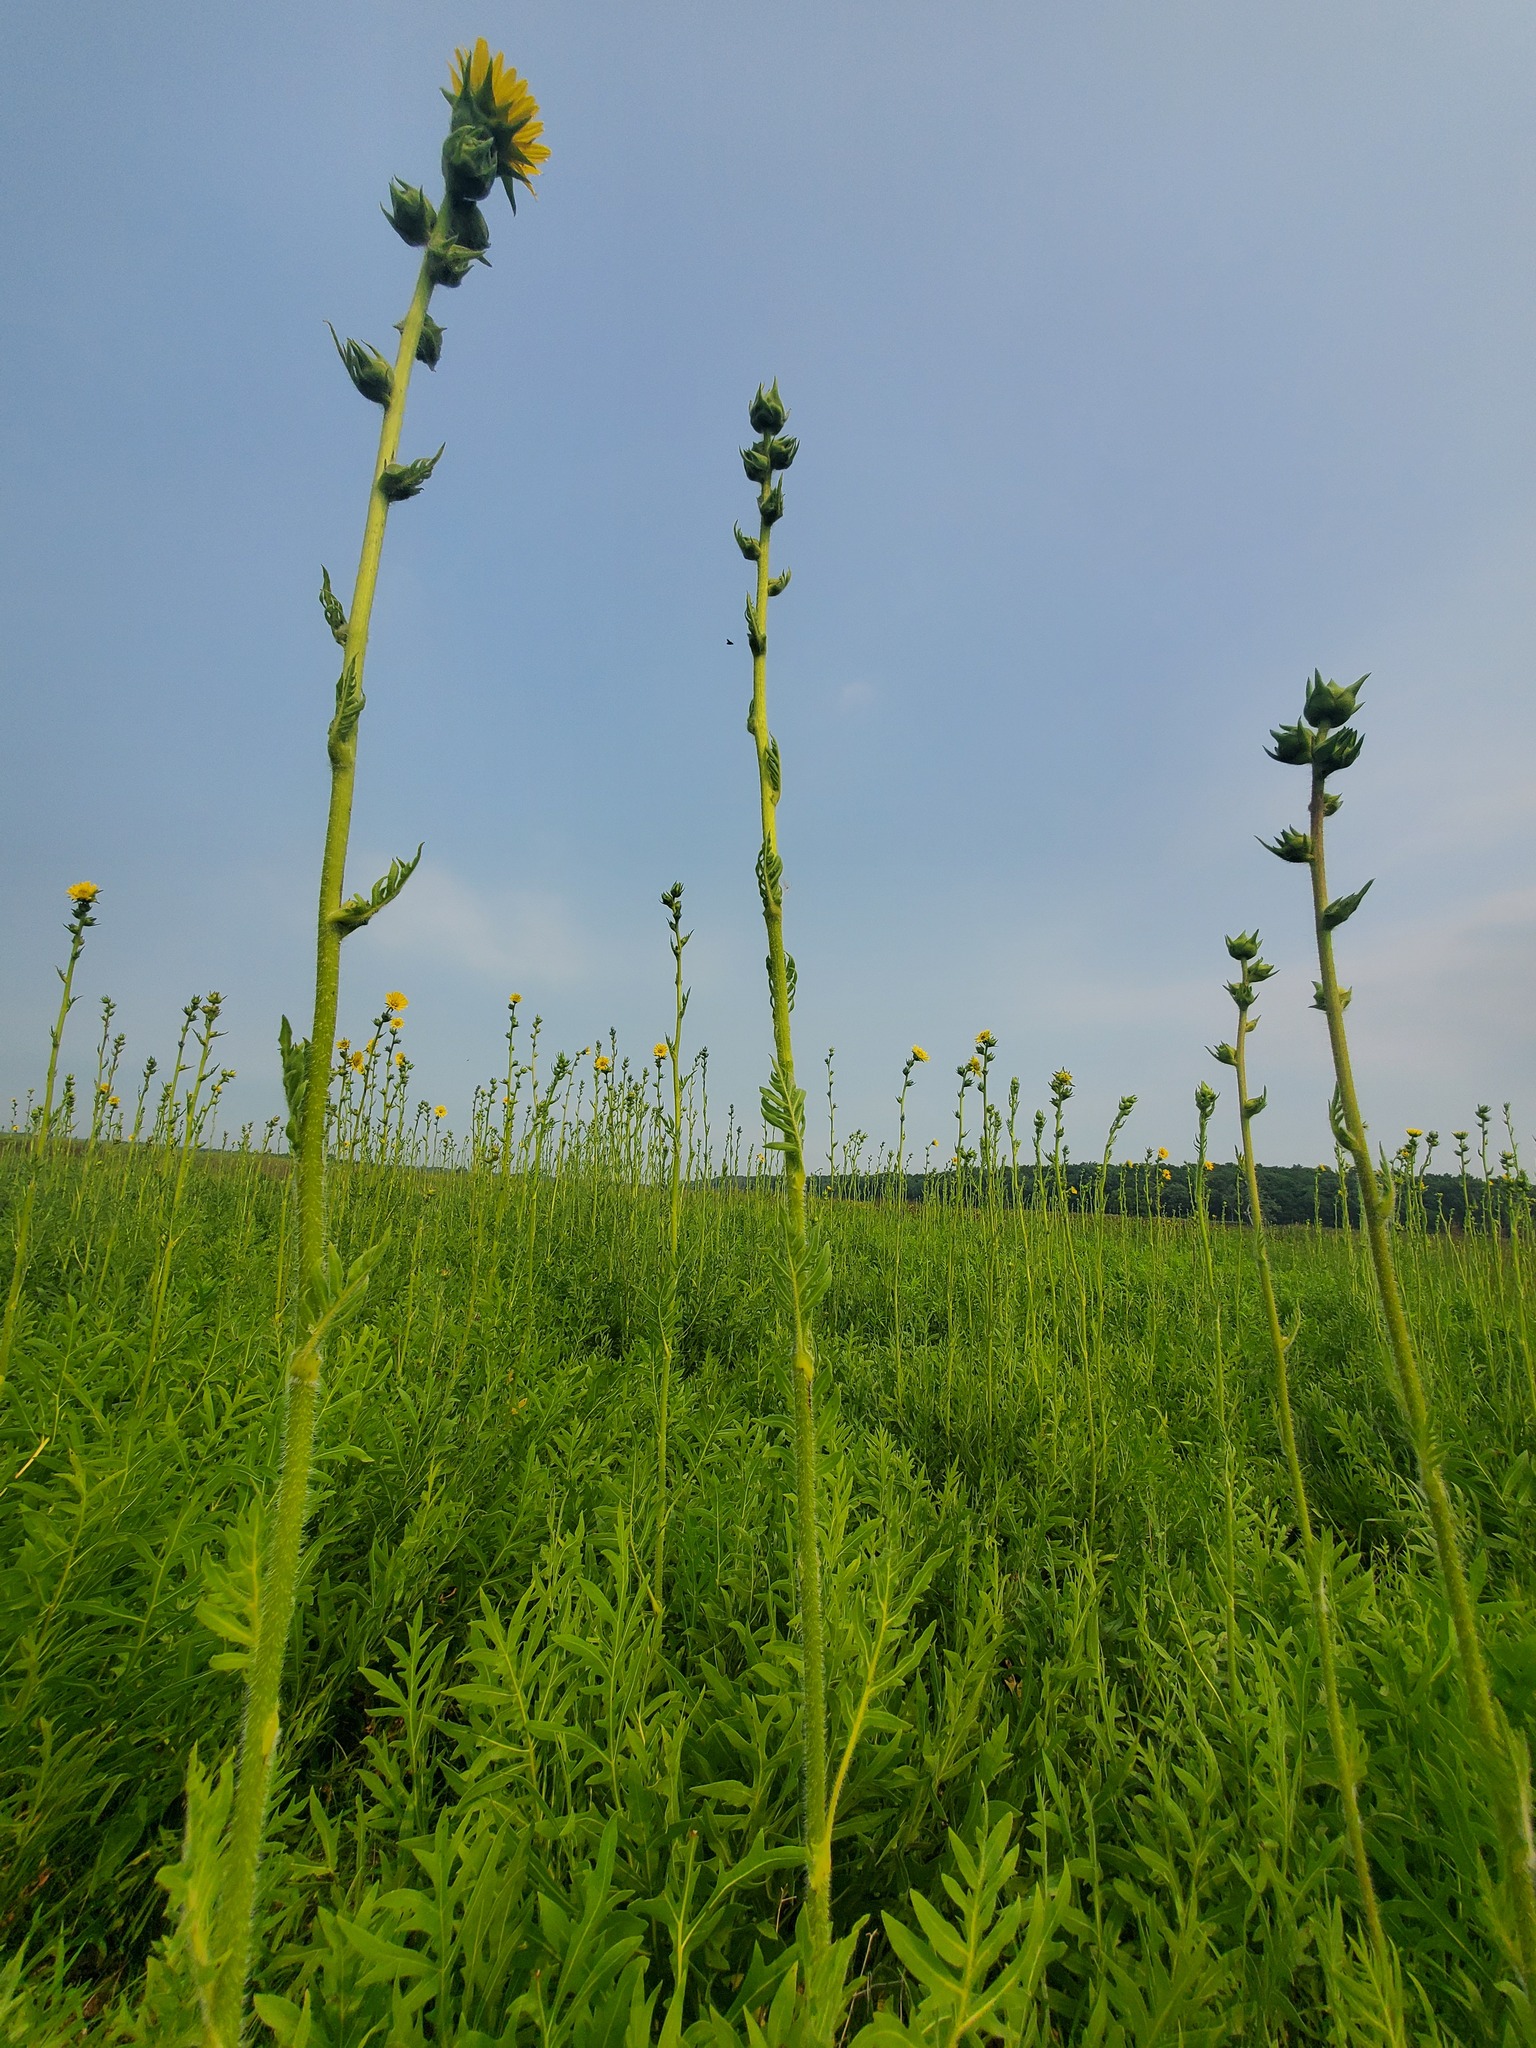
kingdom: Plantae
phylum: Tracheophyta
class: Magnoliopsida
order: Asterales
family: Asteraceae
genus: Silphium
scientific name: Silphium laciniatum
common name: Polarplant
